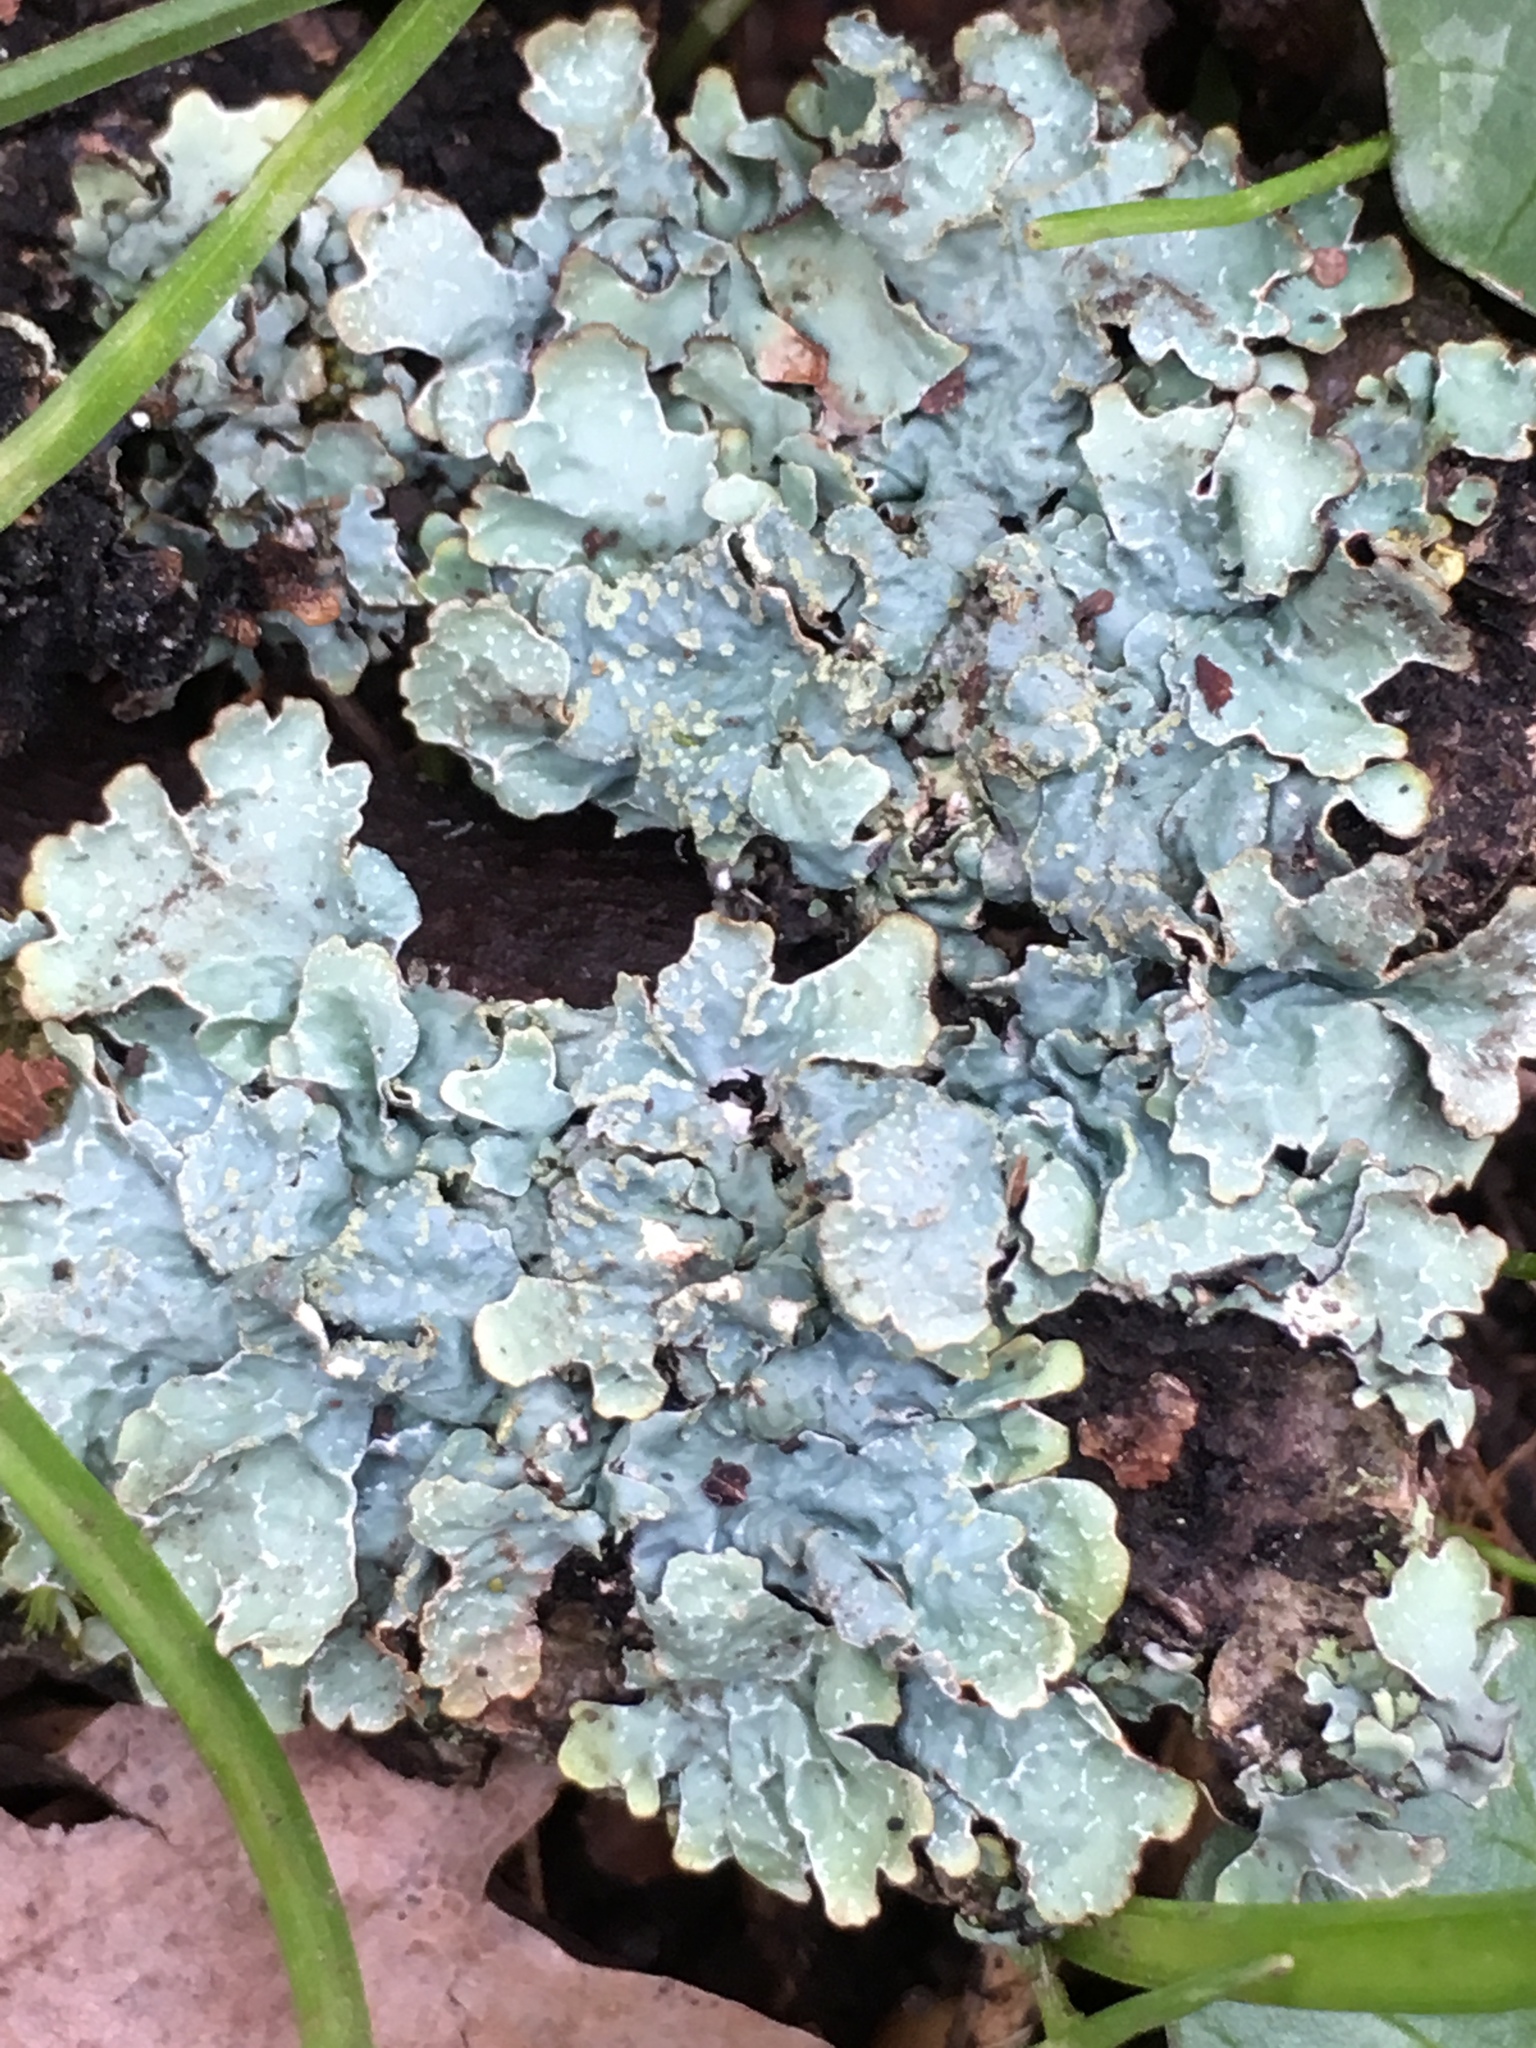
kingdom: Fungi
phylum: Ascomycota
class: Lecanoromycetes
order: Lecanorales
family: Parmeliaceae
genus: Parmelia
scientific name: Parmelia sulcata
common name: Netted shield lichen
